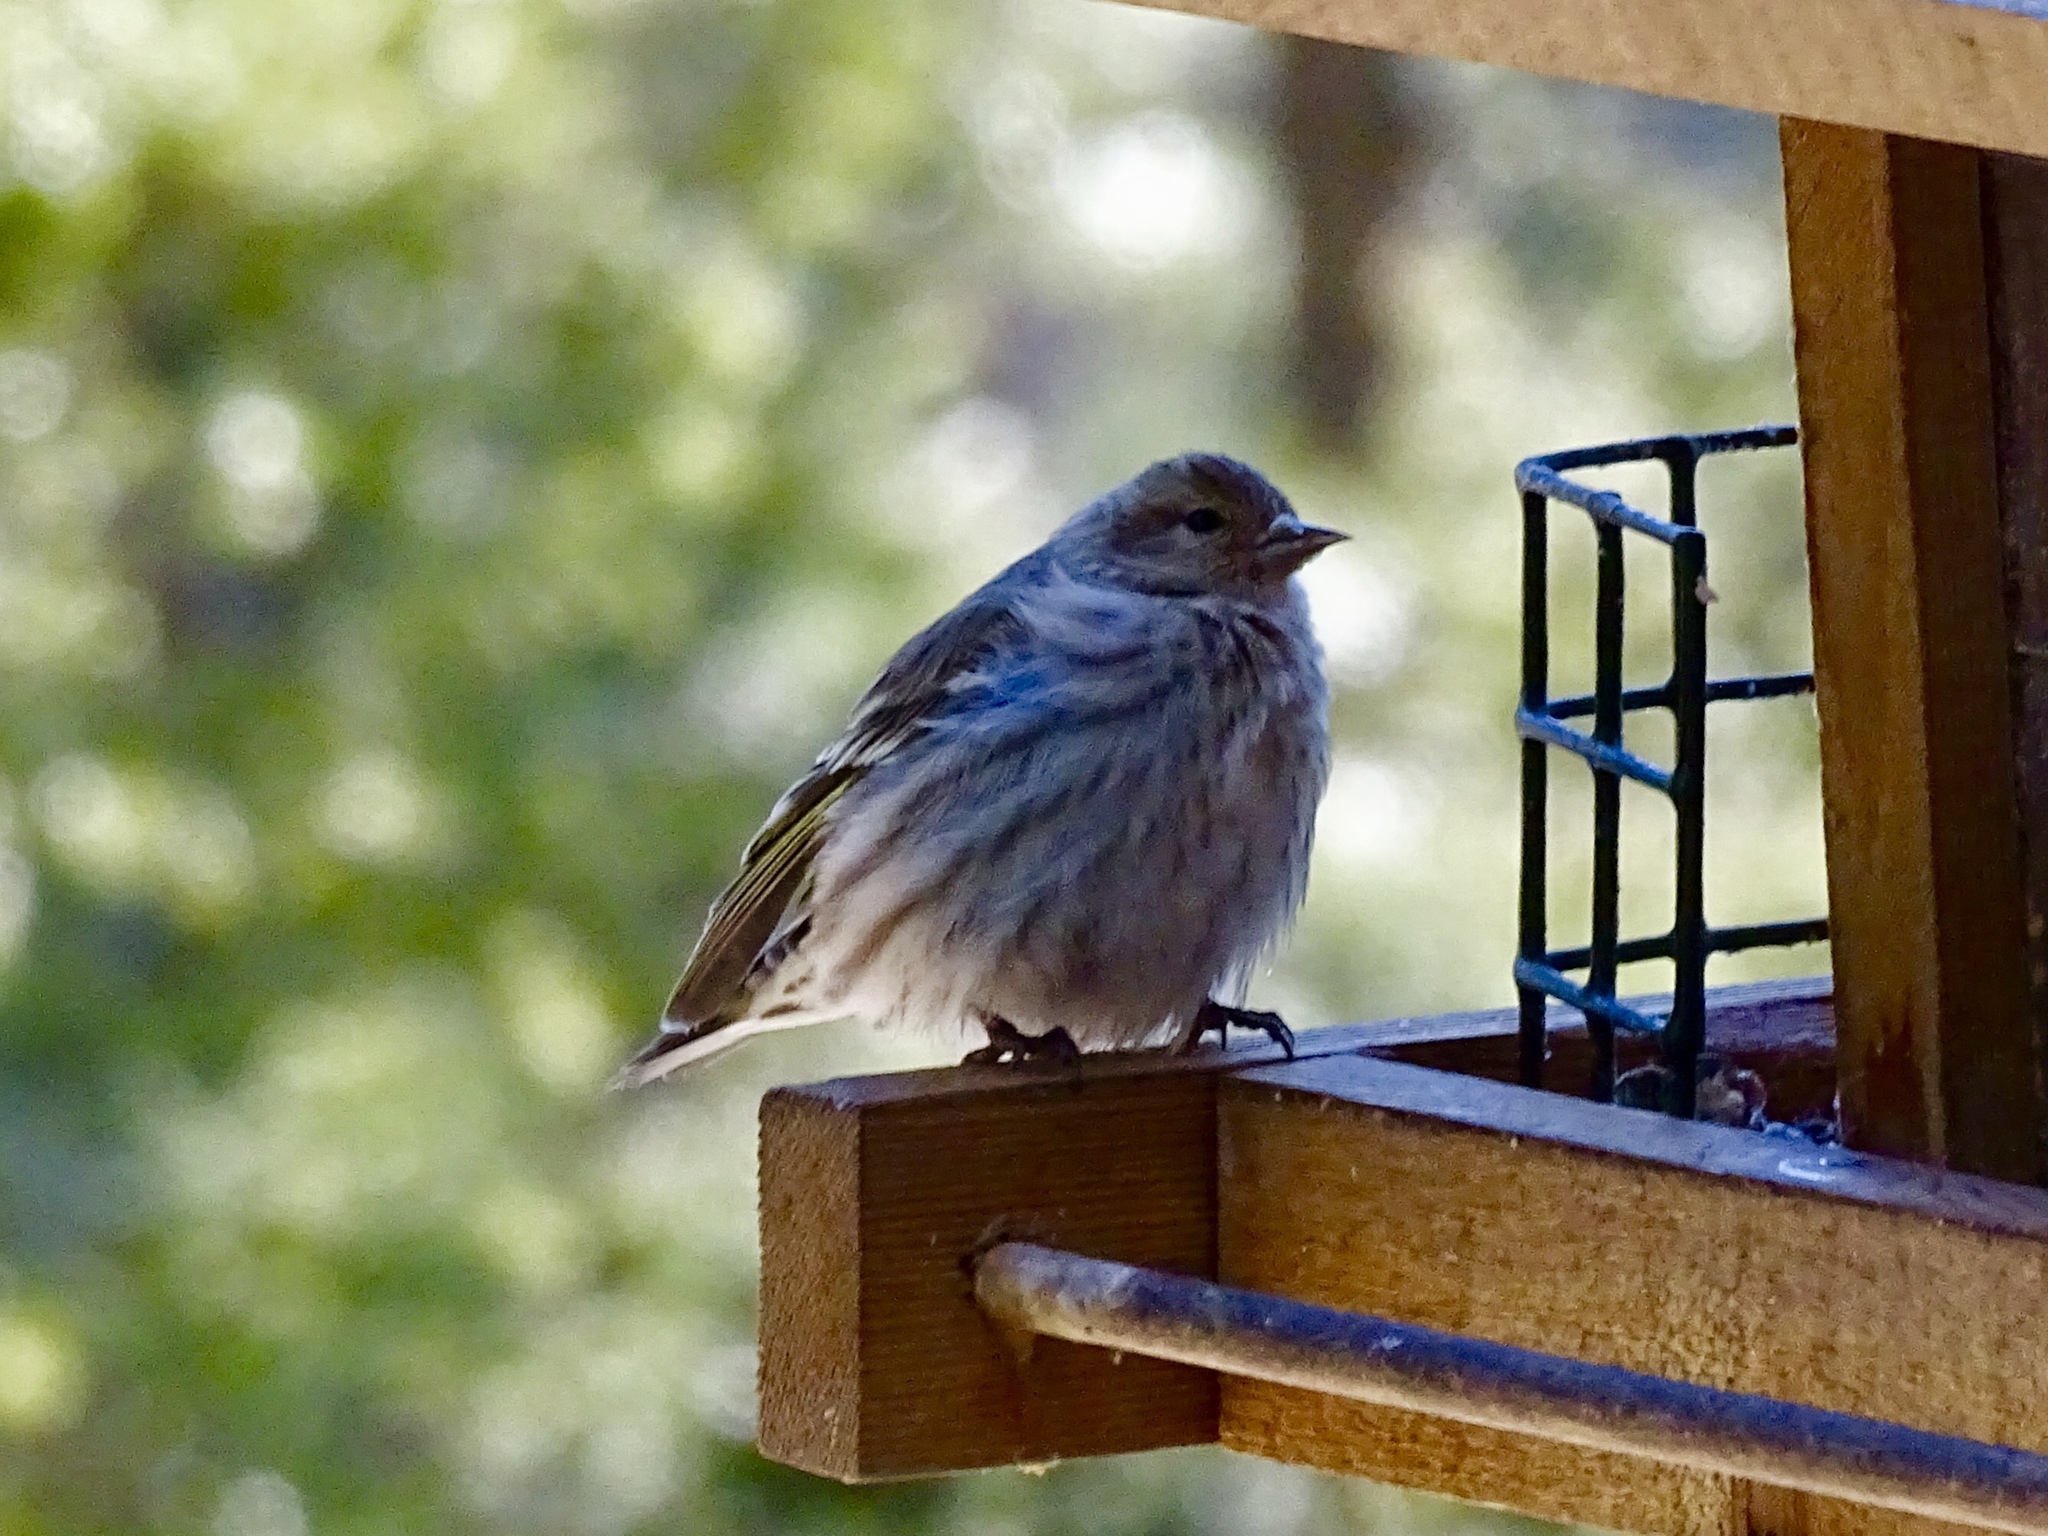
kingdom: Animalia
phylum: Chordata
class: Aves
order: Passeriformes
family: Fringillidae
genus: Spinus
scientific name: Spinus pinus
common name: Pine siskin
